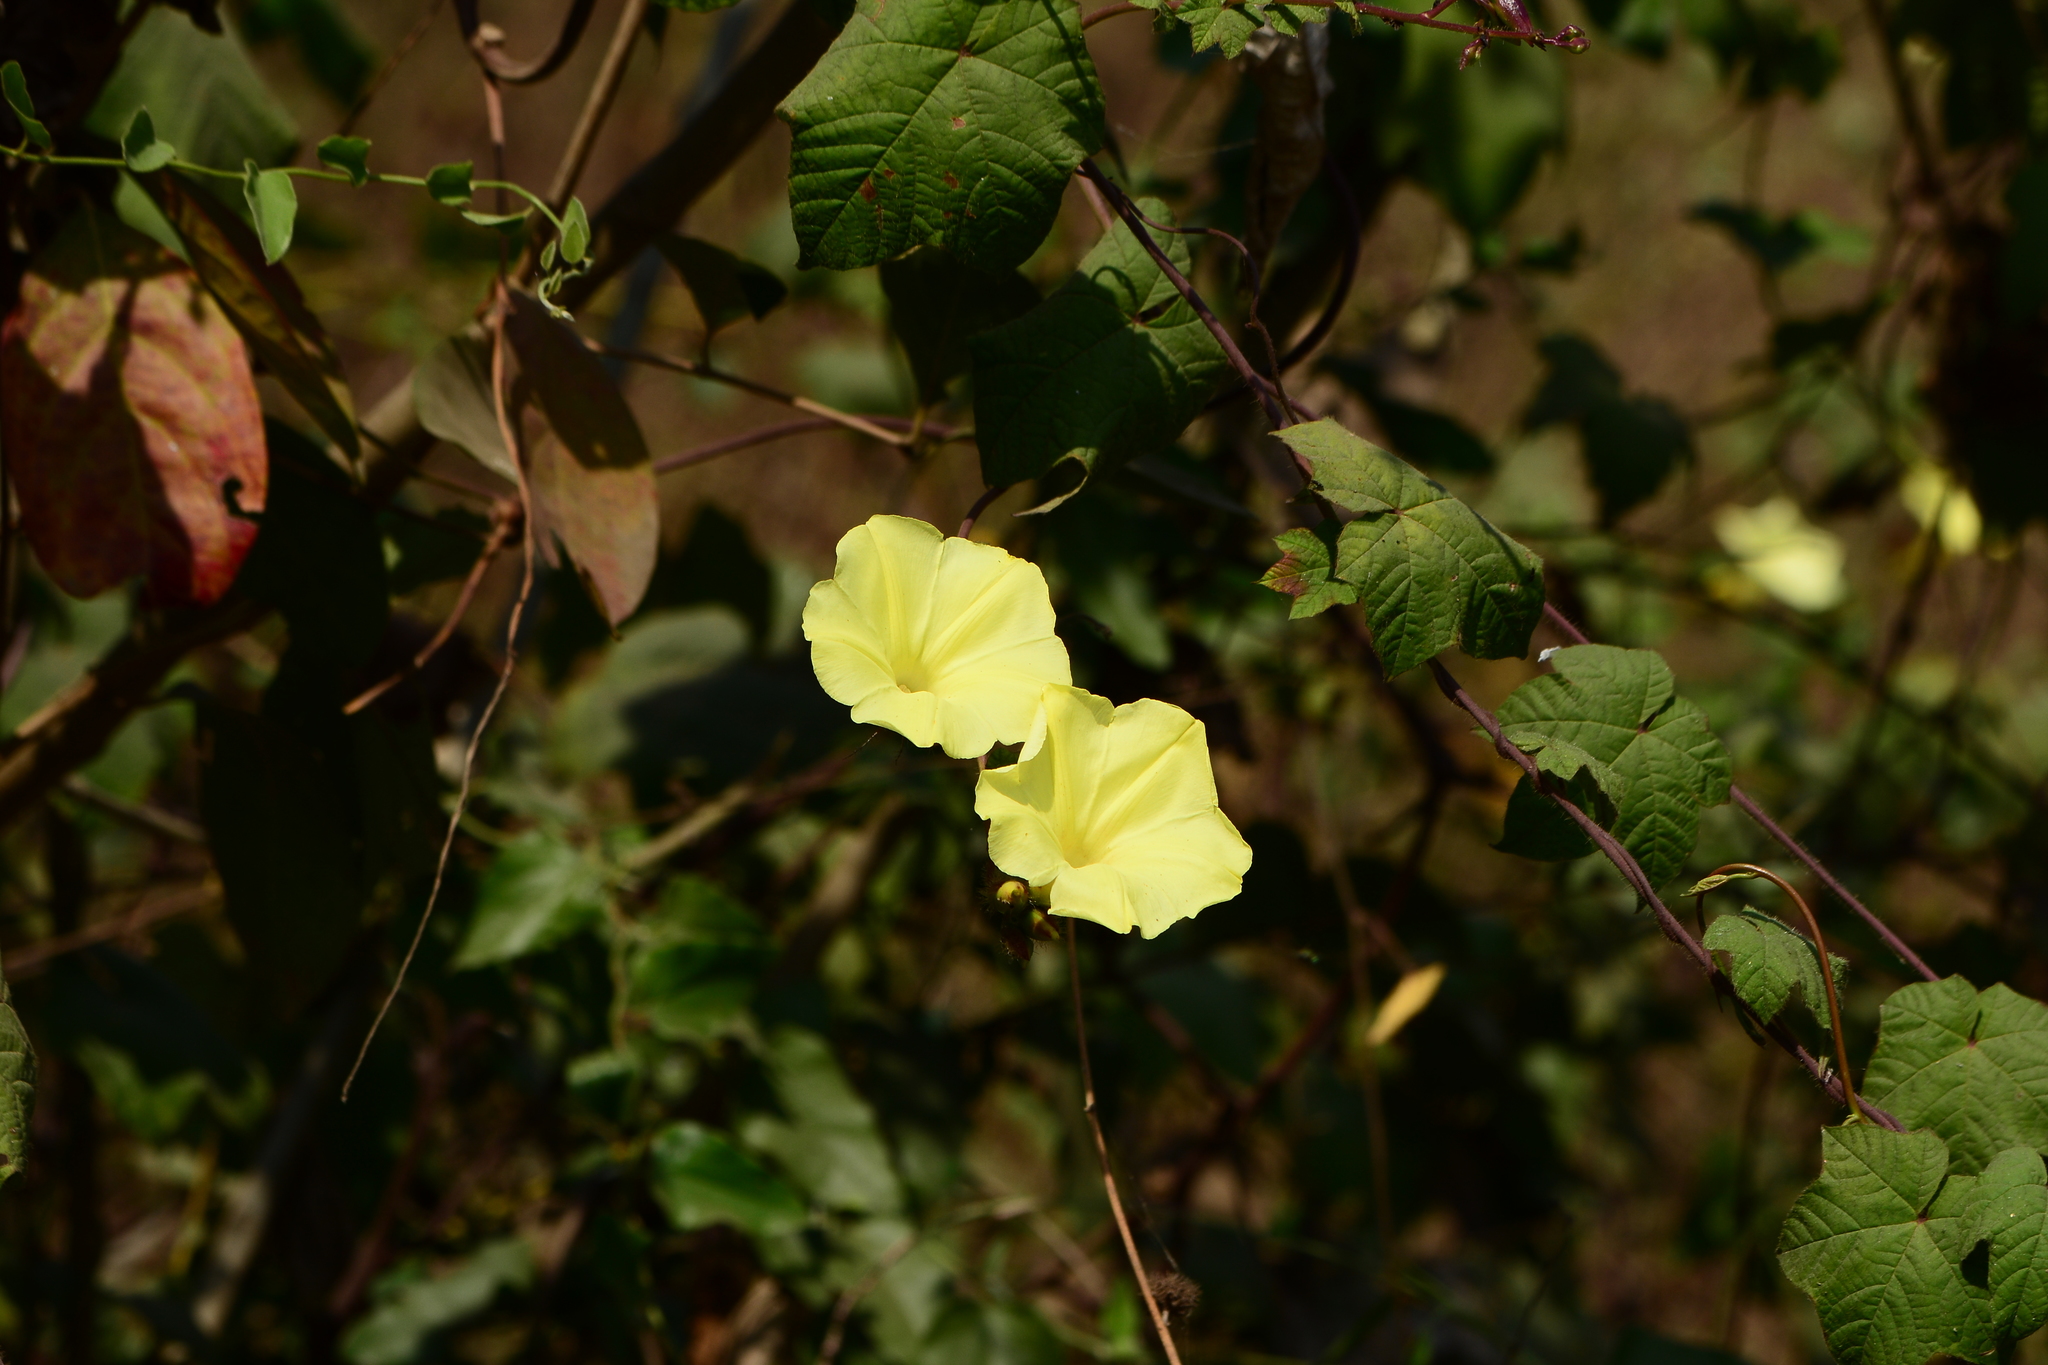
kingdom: Plantae
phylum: Tracheophyta
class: Magnoliopsida
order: Solanales
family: Convolvulaceae
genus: Distimake
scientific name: Distimake
